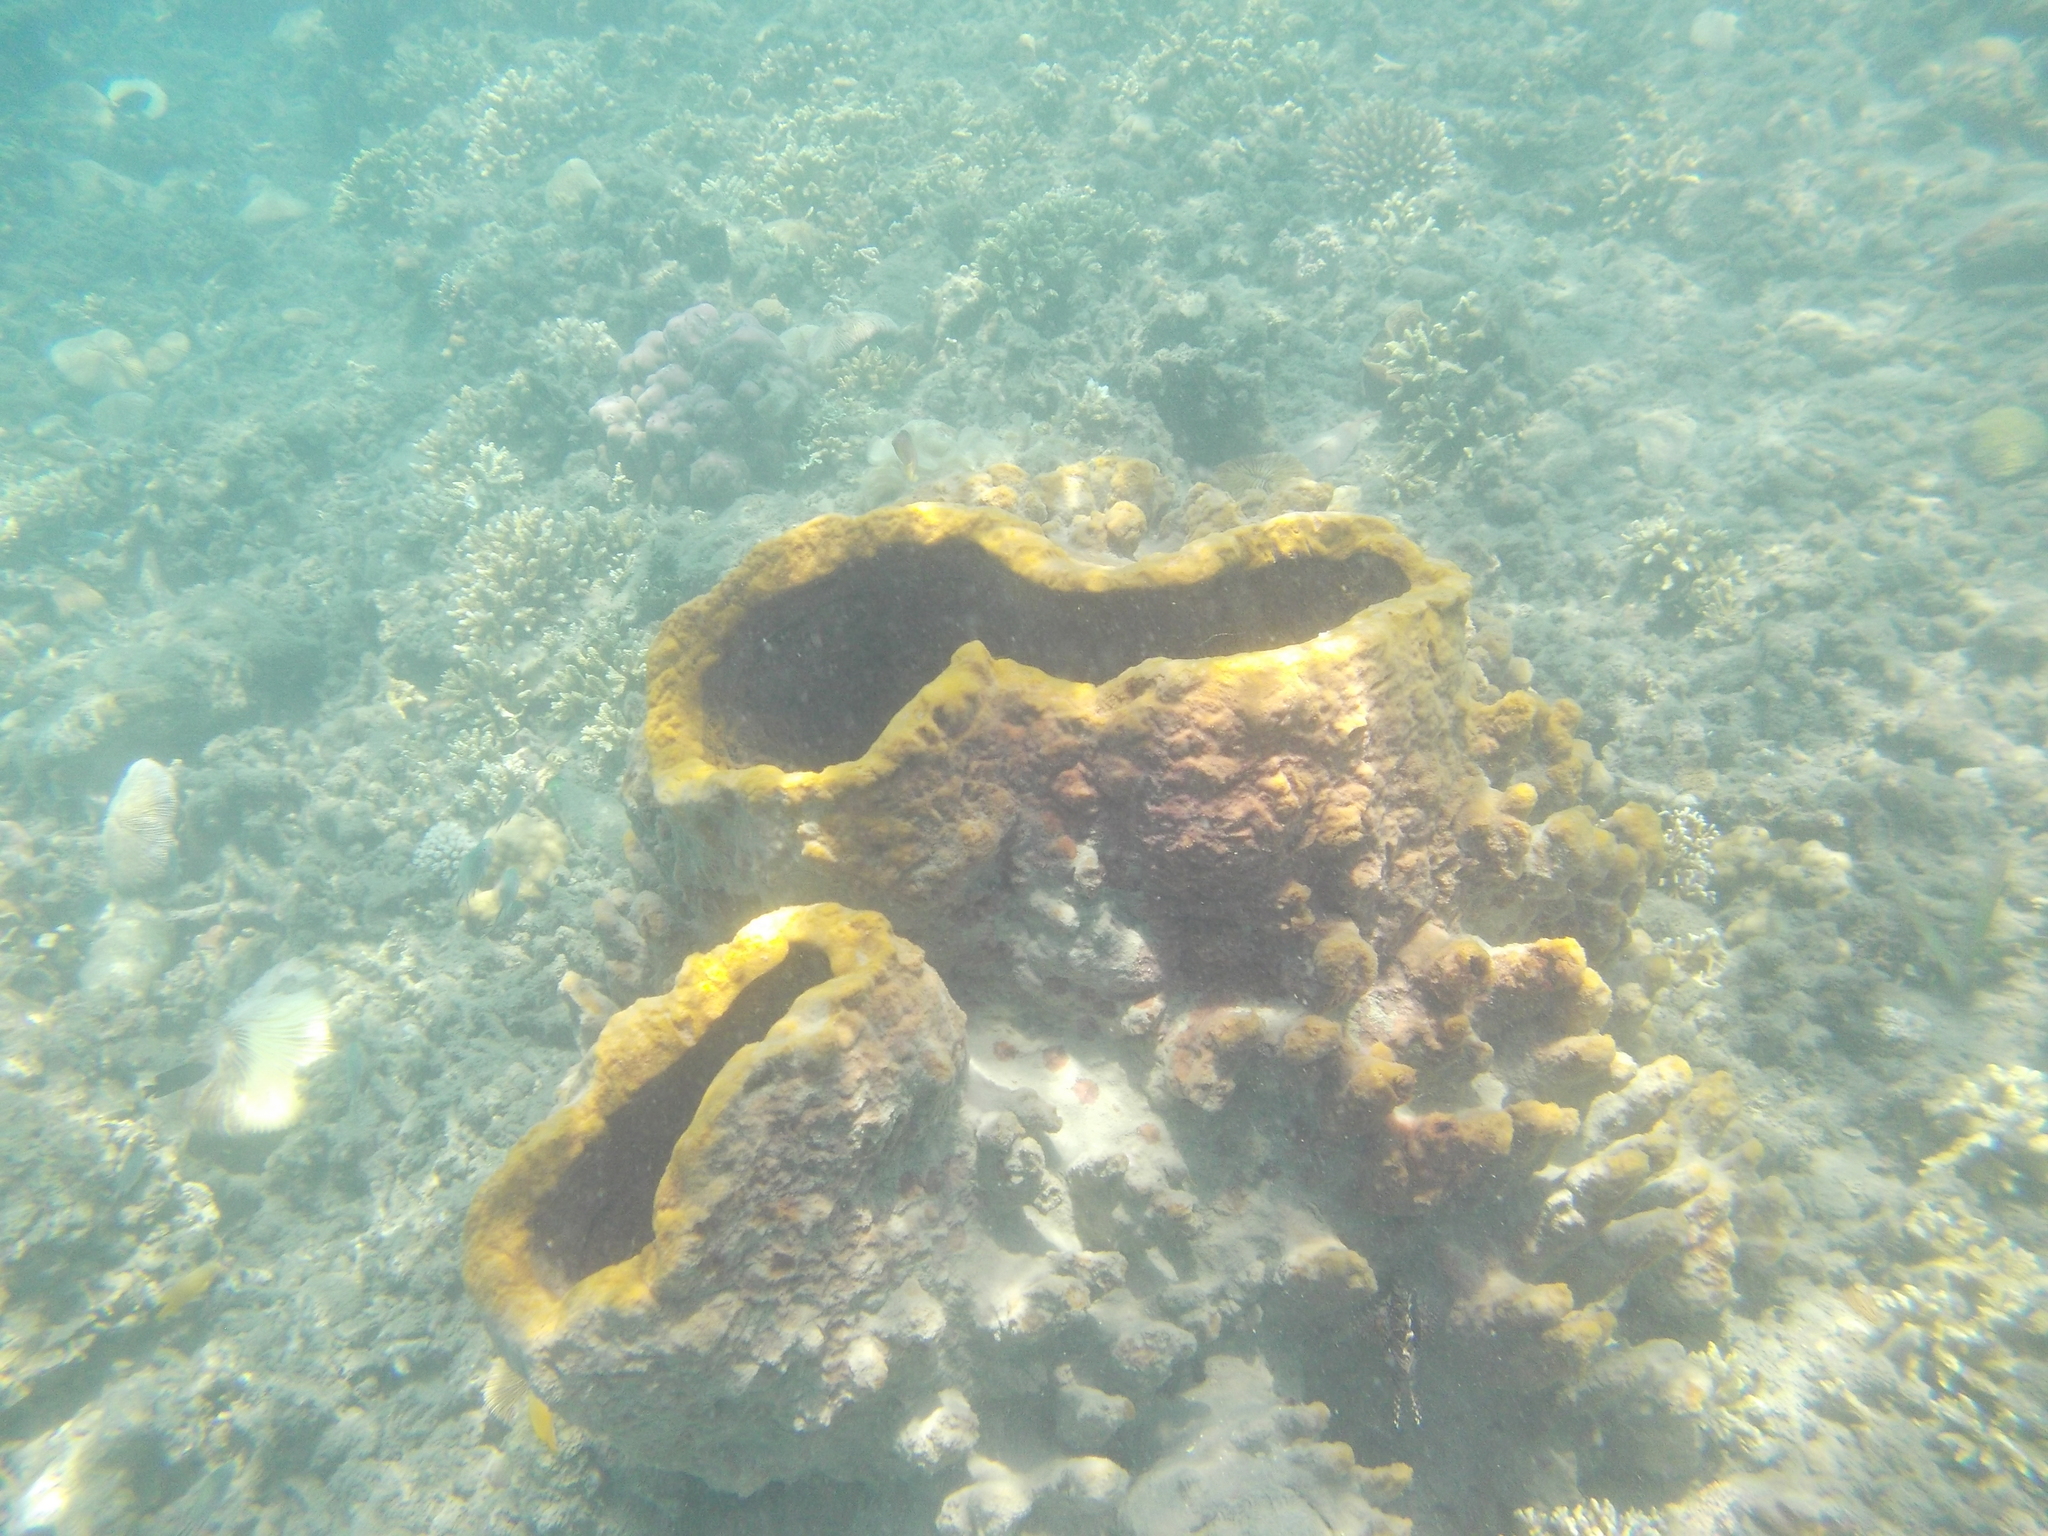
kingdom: Animalia
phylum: Porifera
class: Demospongiae
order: Haplosclerida
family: Petrosiidae
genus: Xestospongia
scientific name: Xestospongia testudinaria
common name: Barrel sponge
